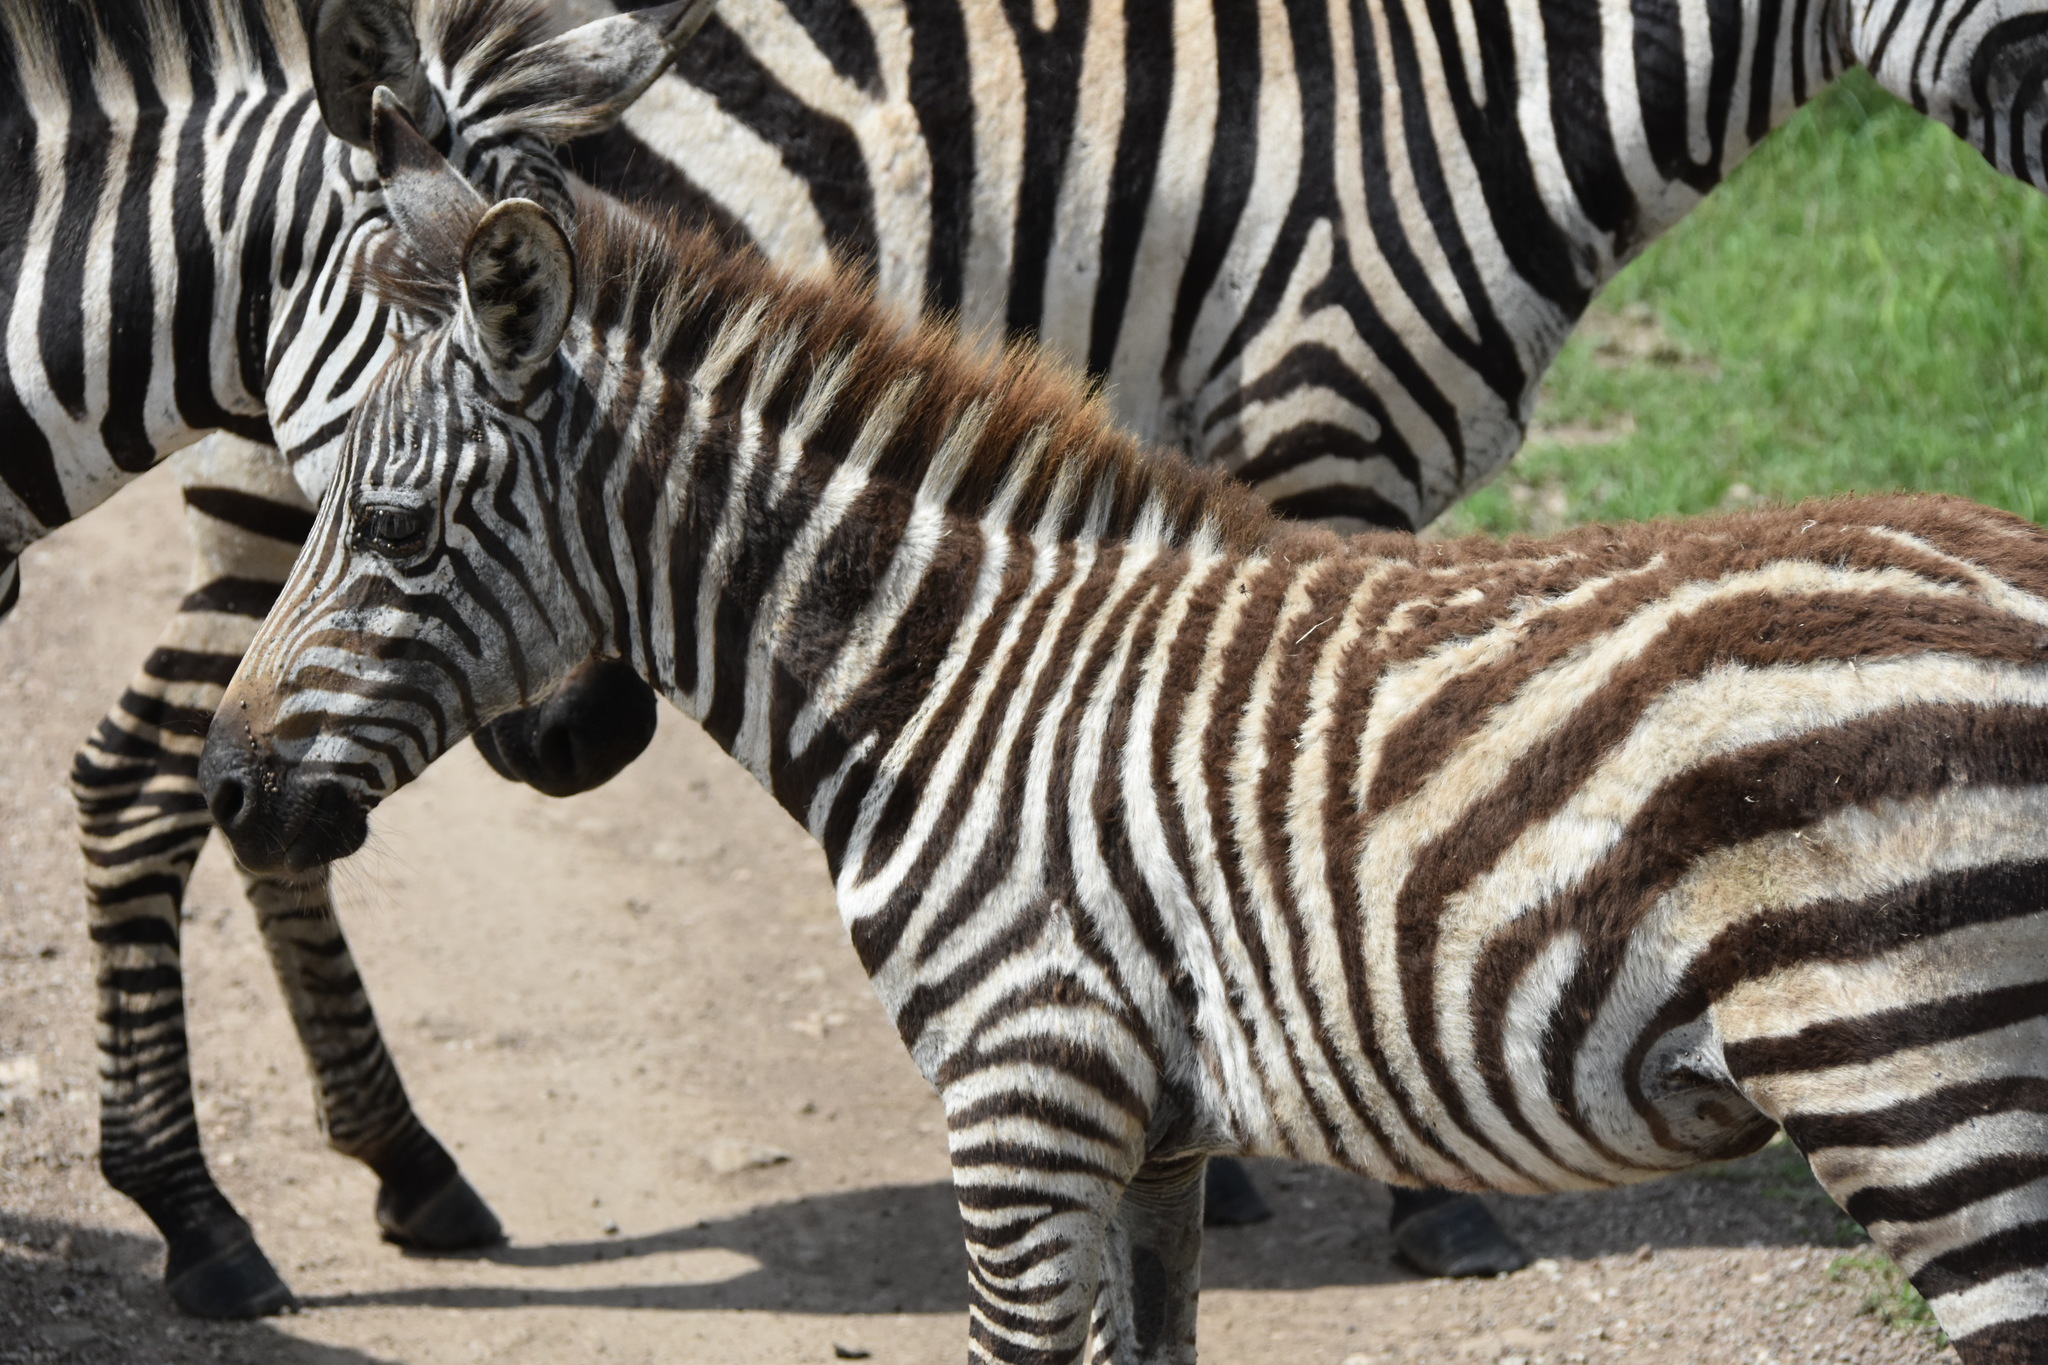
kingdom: Animalia
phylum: Chordata
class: Mammalia
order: Perissodactyla
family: Equidae
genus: Equus
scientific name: Equus quagga
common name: Plains zebra
